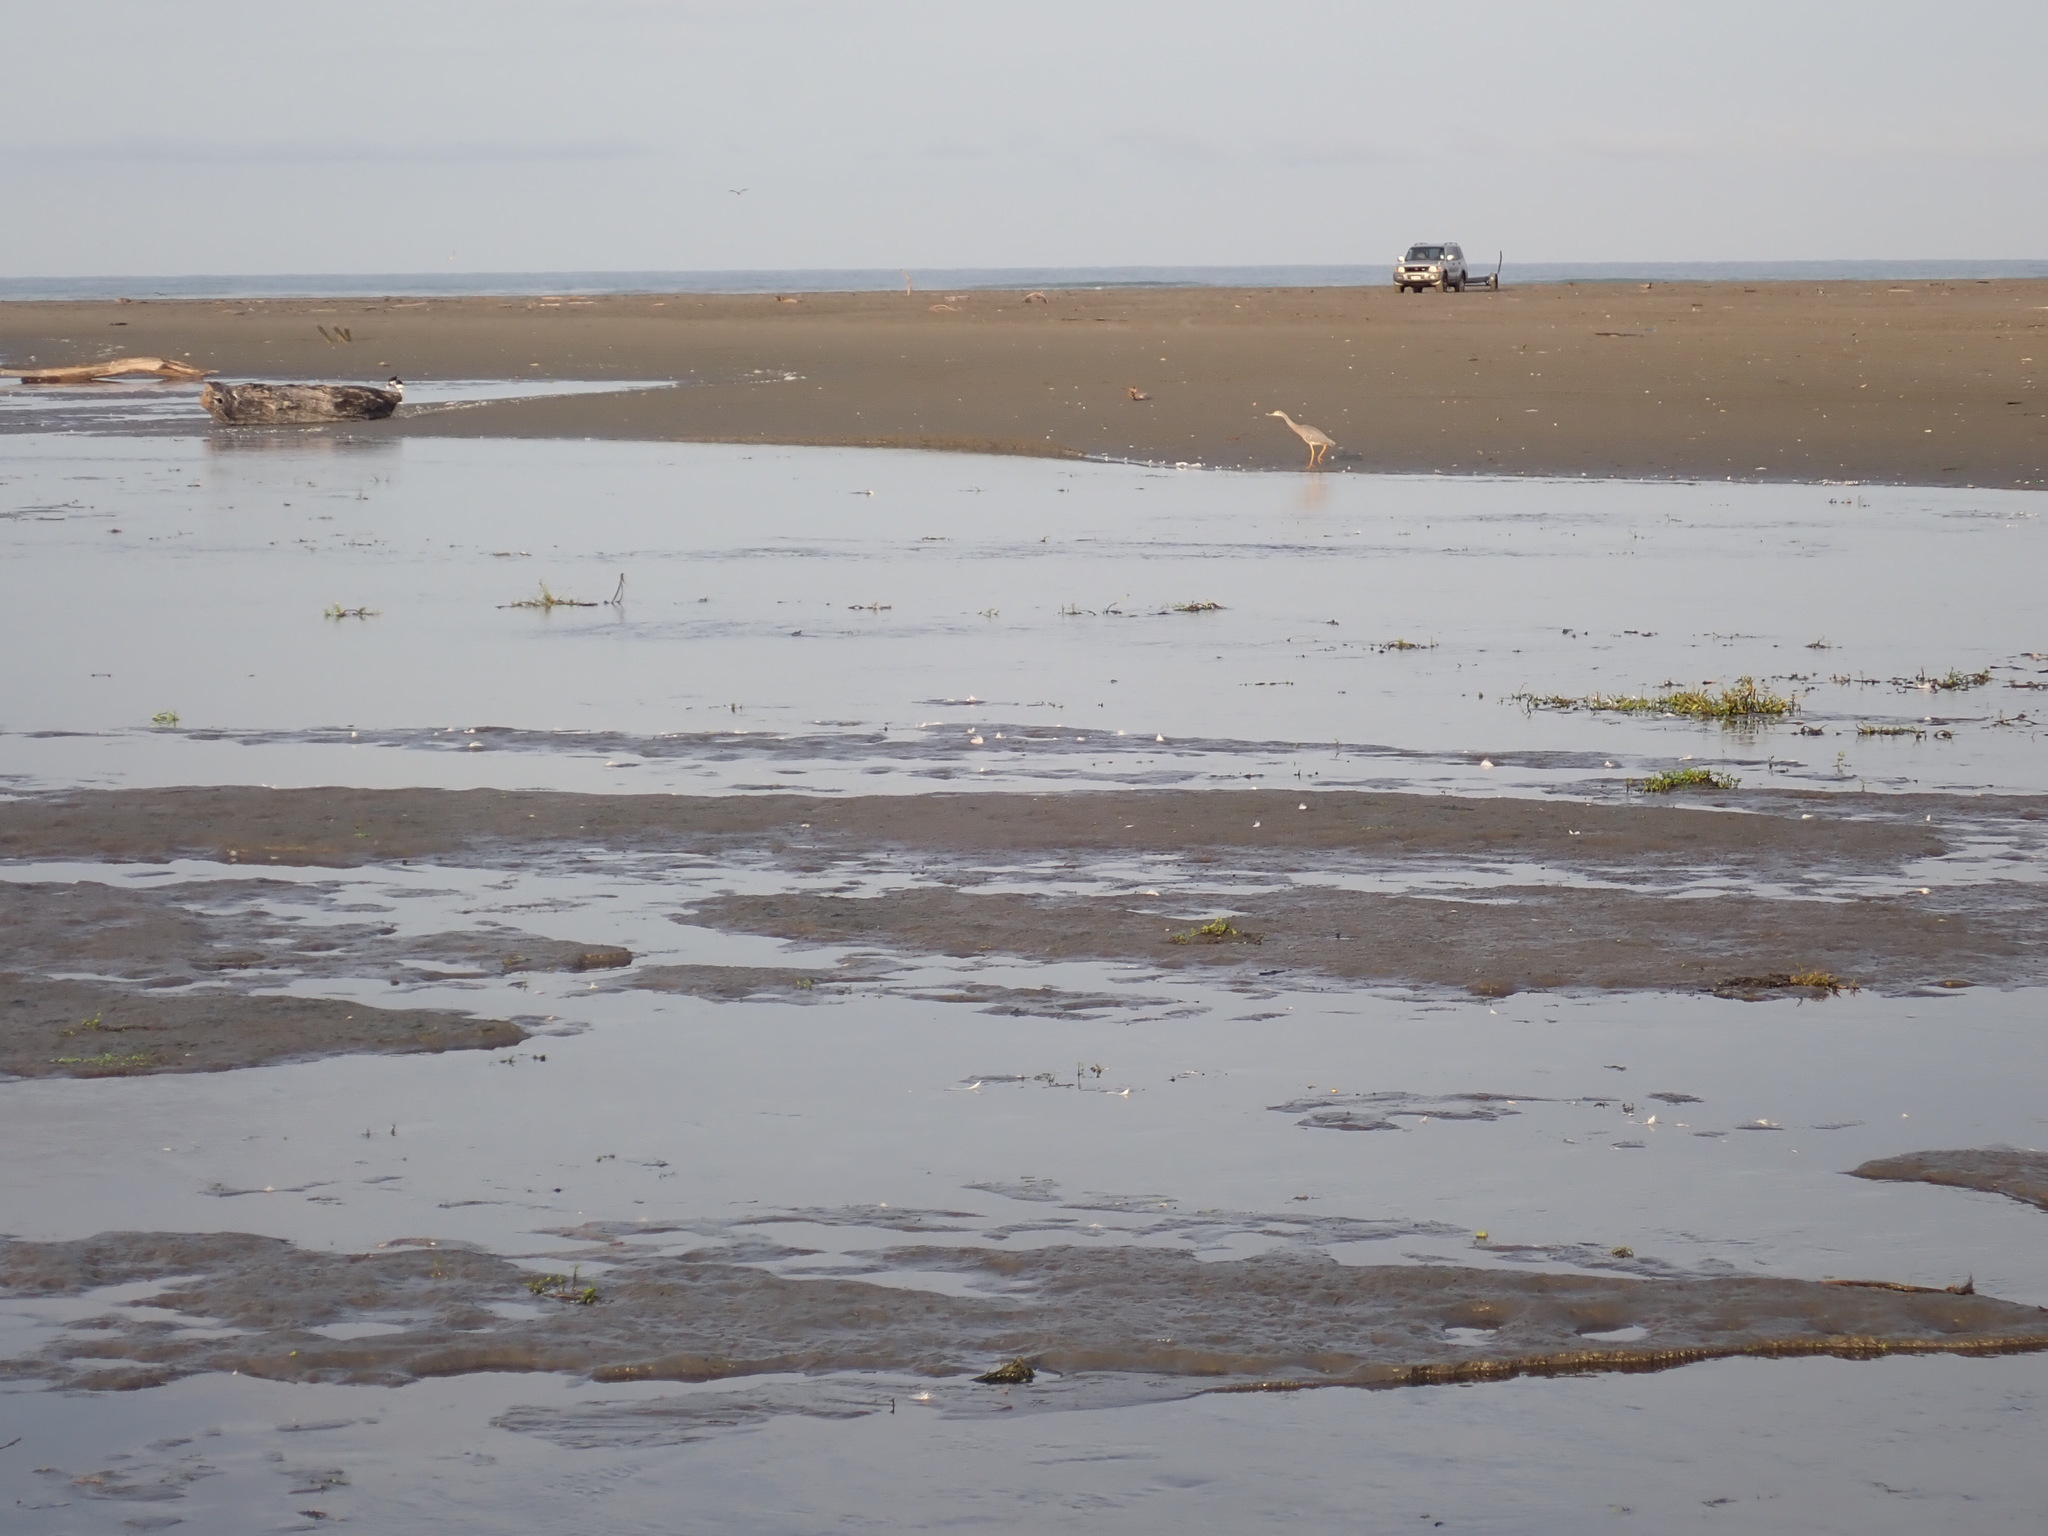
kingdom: Animalia
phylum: Chordata
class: Aves
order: Pelecaniformes
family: Ardeidae
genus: Egretta
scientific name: Egretta novaehollandiae
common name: White-faced heron
